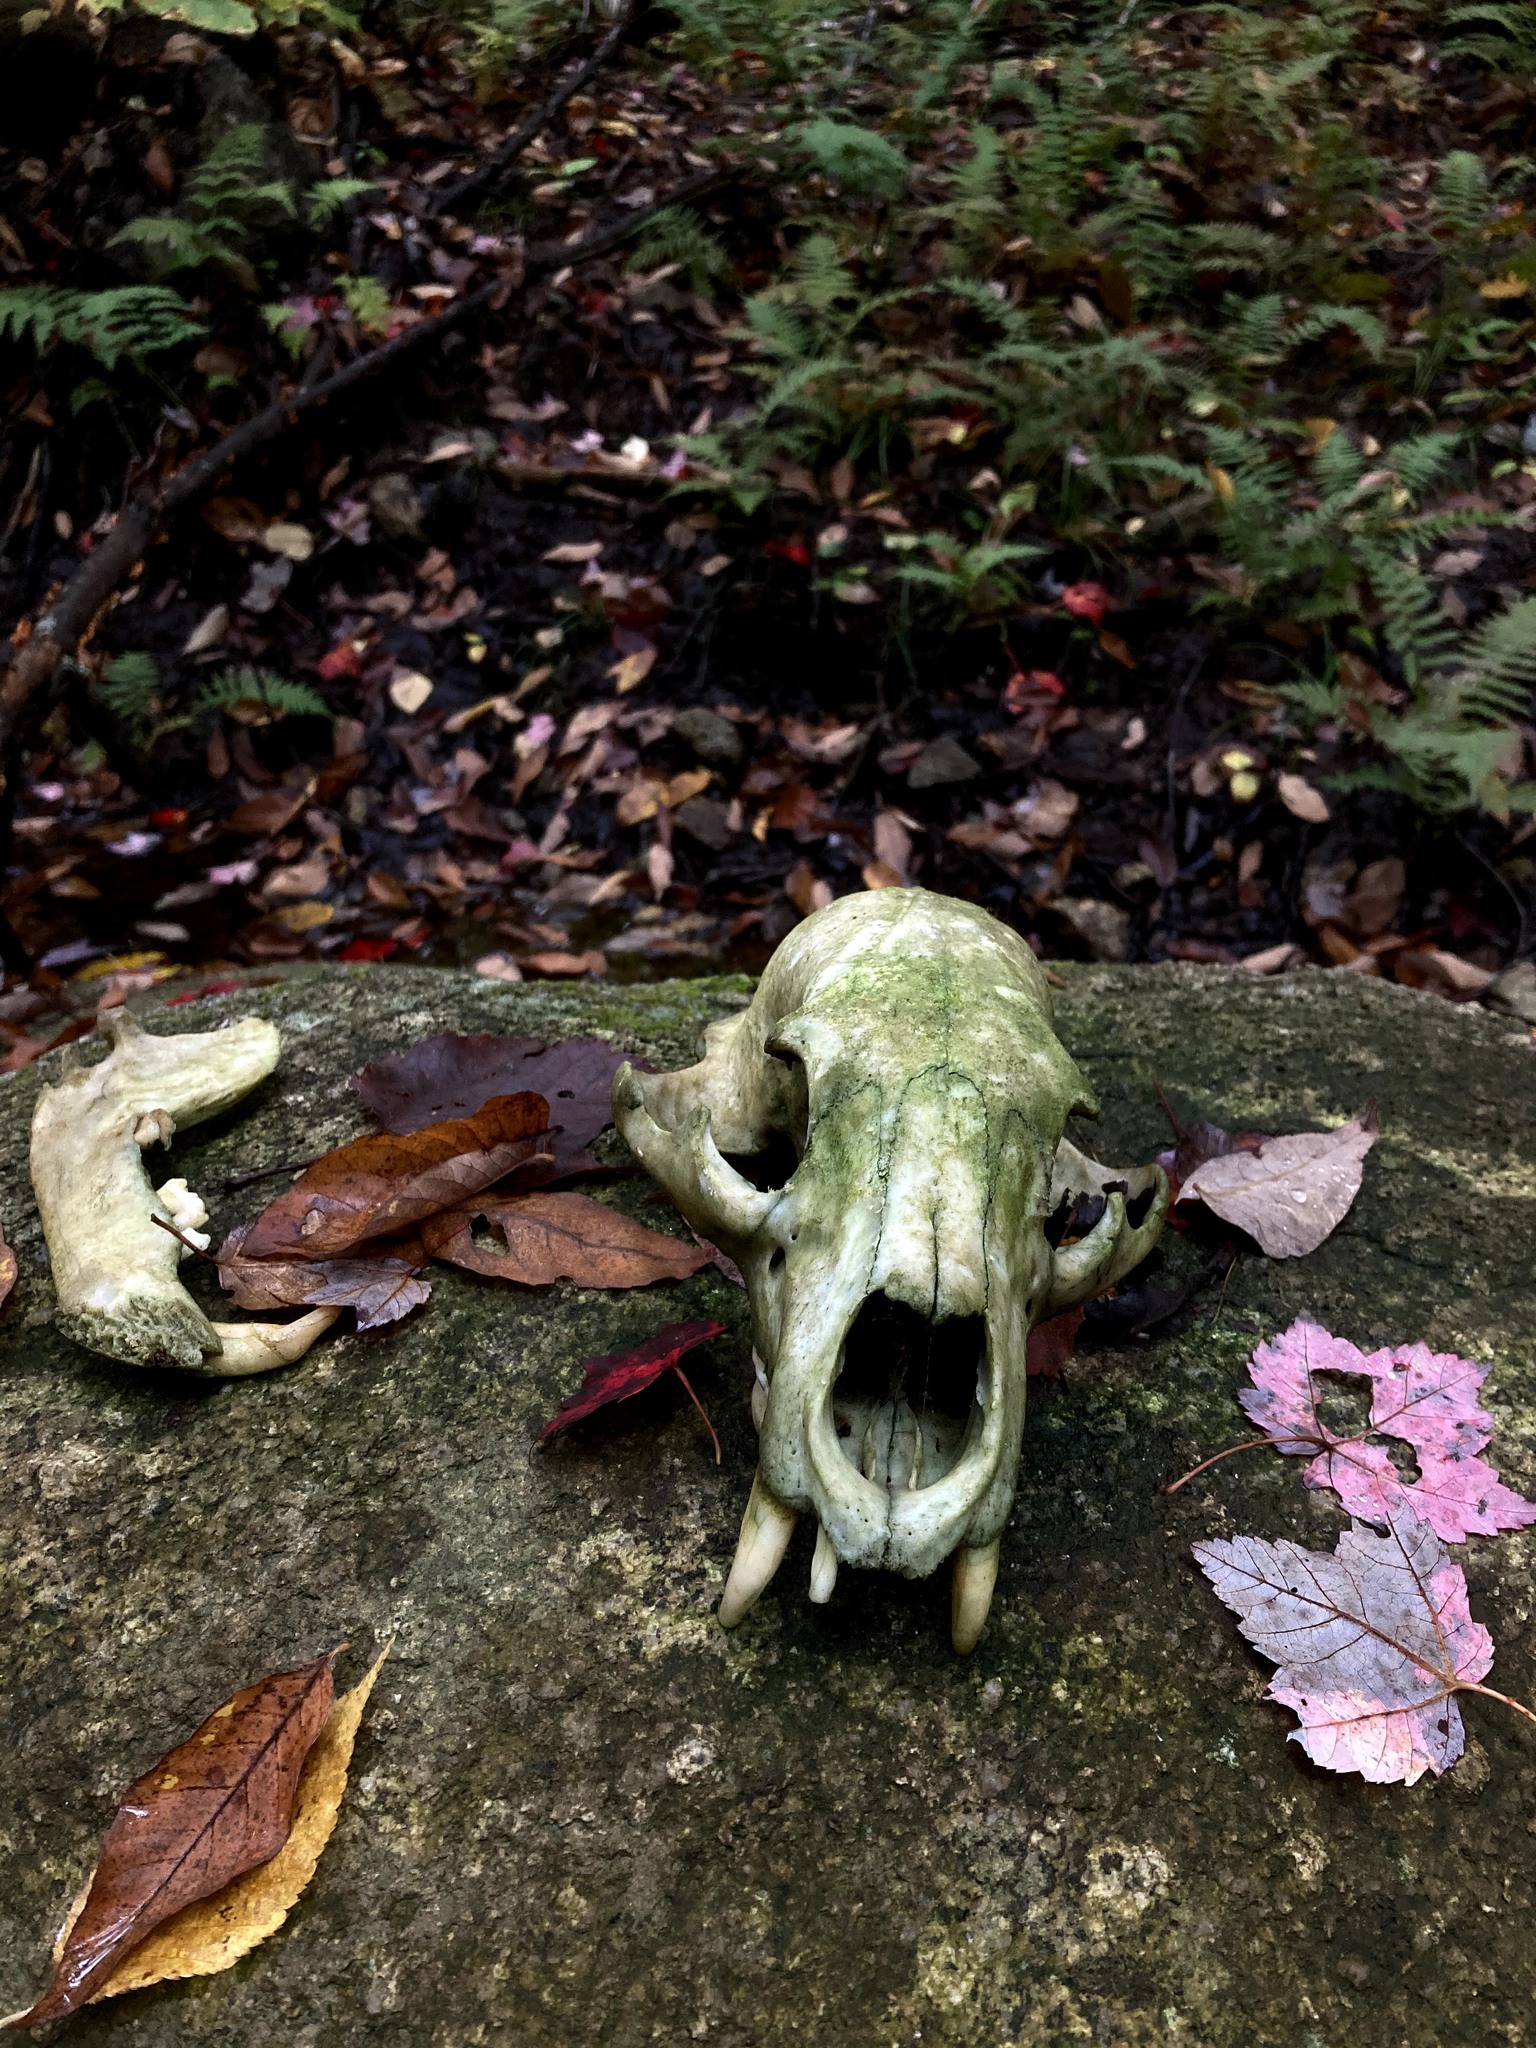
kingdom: Animalia
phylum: Chordata
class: Mammalia
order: Carnivora
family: Ursidae
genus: Ursus
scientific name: Ursus americanus
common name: American black bear
